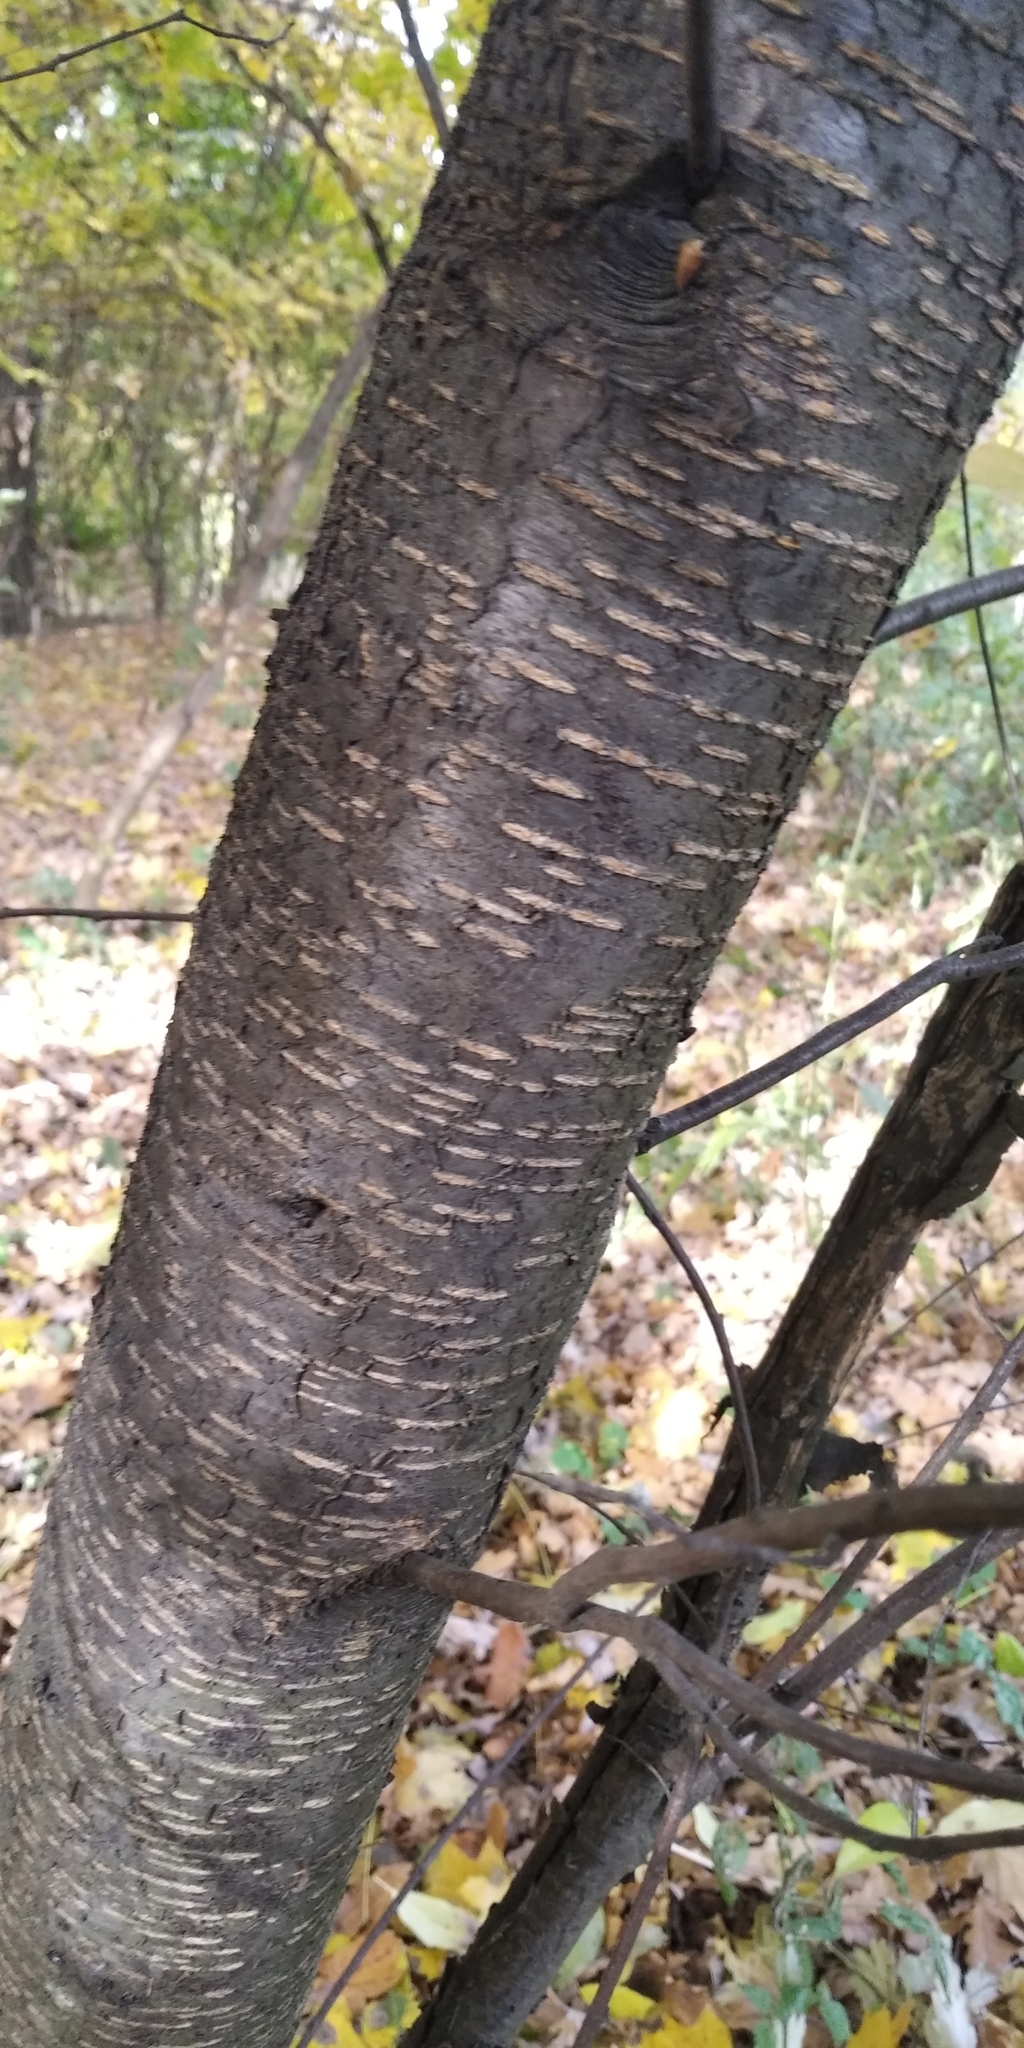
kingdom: Plantae
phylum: Tracheophyta
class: Magnoliopsida
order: Rosales
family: Rosaceae
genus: Prunus
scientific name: Prunus serotina
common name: Black cherry
